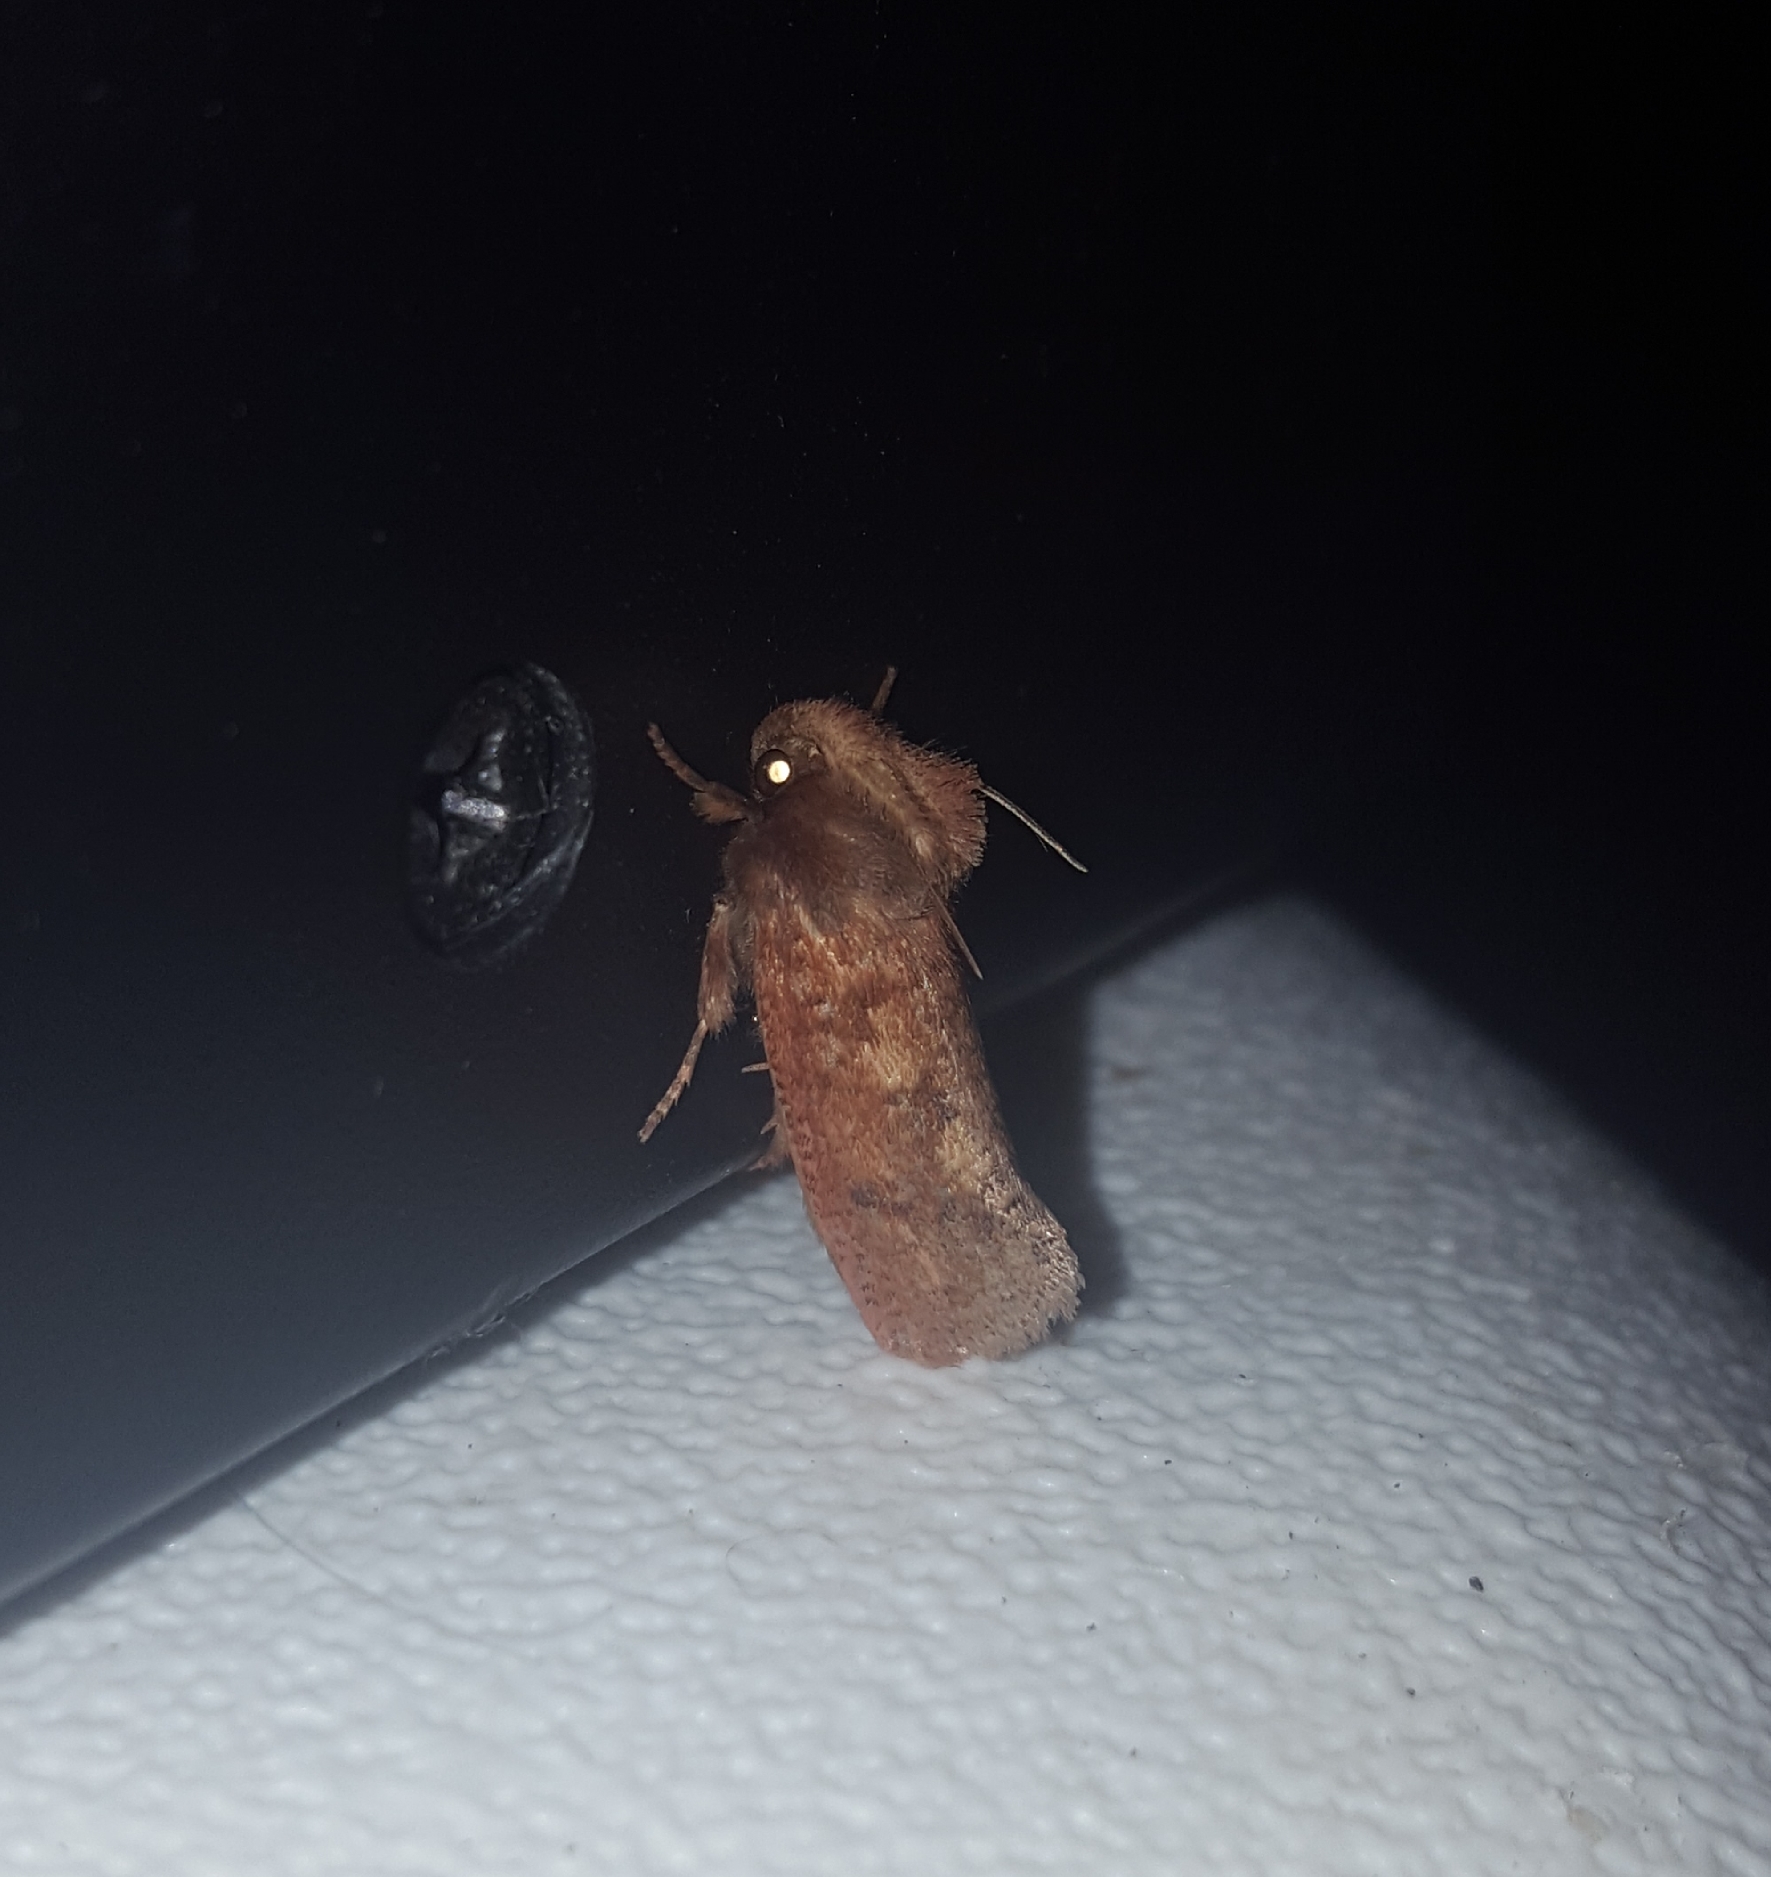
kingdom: Animalia
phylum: Arthropoda
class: Insecta
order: Lepidoptera
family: Tineidae
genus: Acrolophus
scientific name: Acrolophus plumifrontella
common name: Eastern grass tubeworm moth
